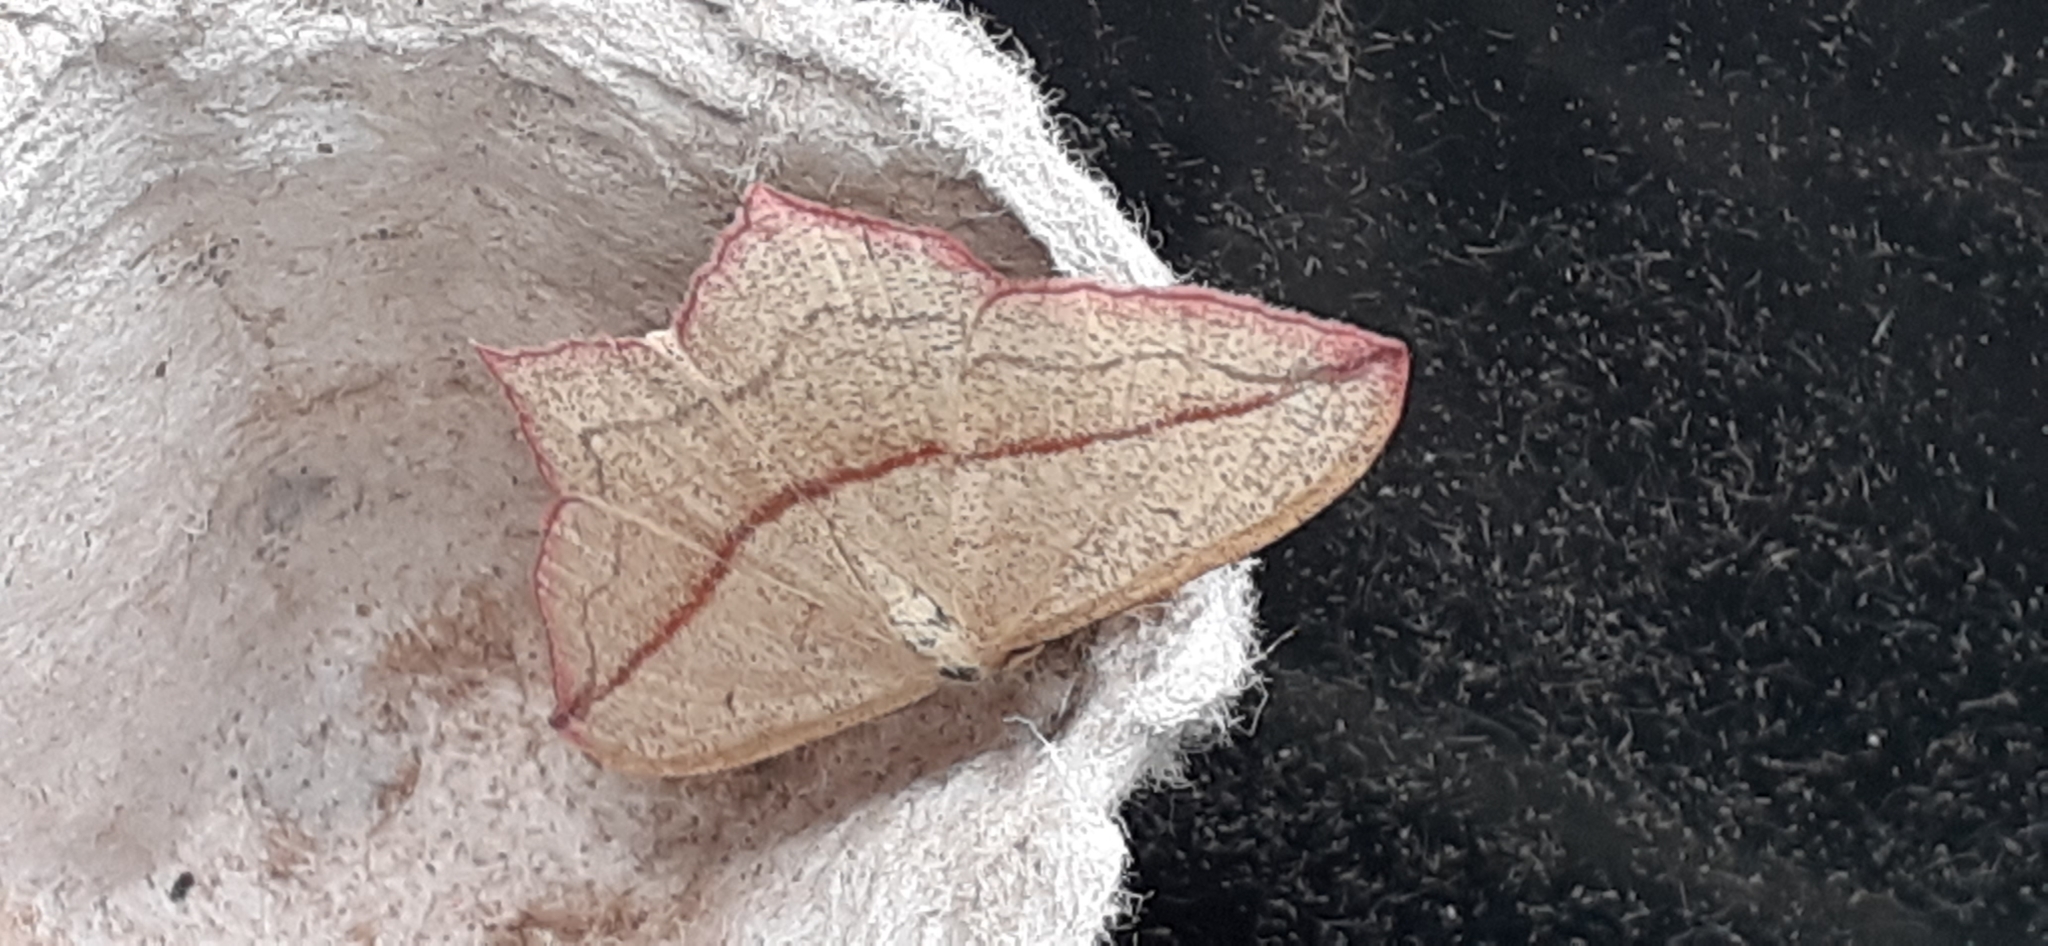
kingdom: Animalia
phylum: Arthropoda
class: Insecta
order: Lepidoptera
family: Geometridae
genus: Timandra
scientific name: Timandra comae
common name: Blood-vein
